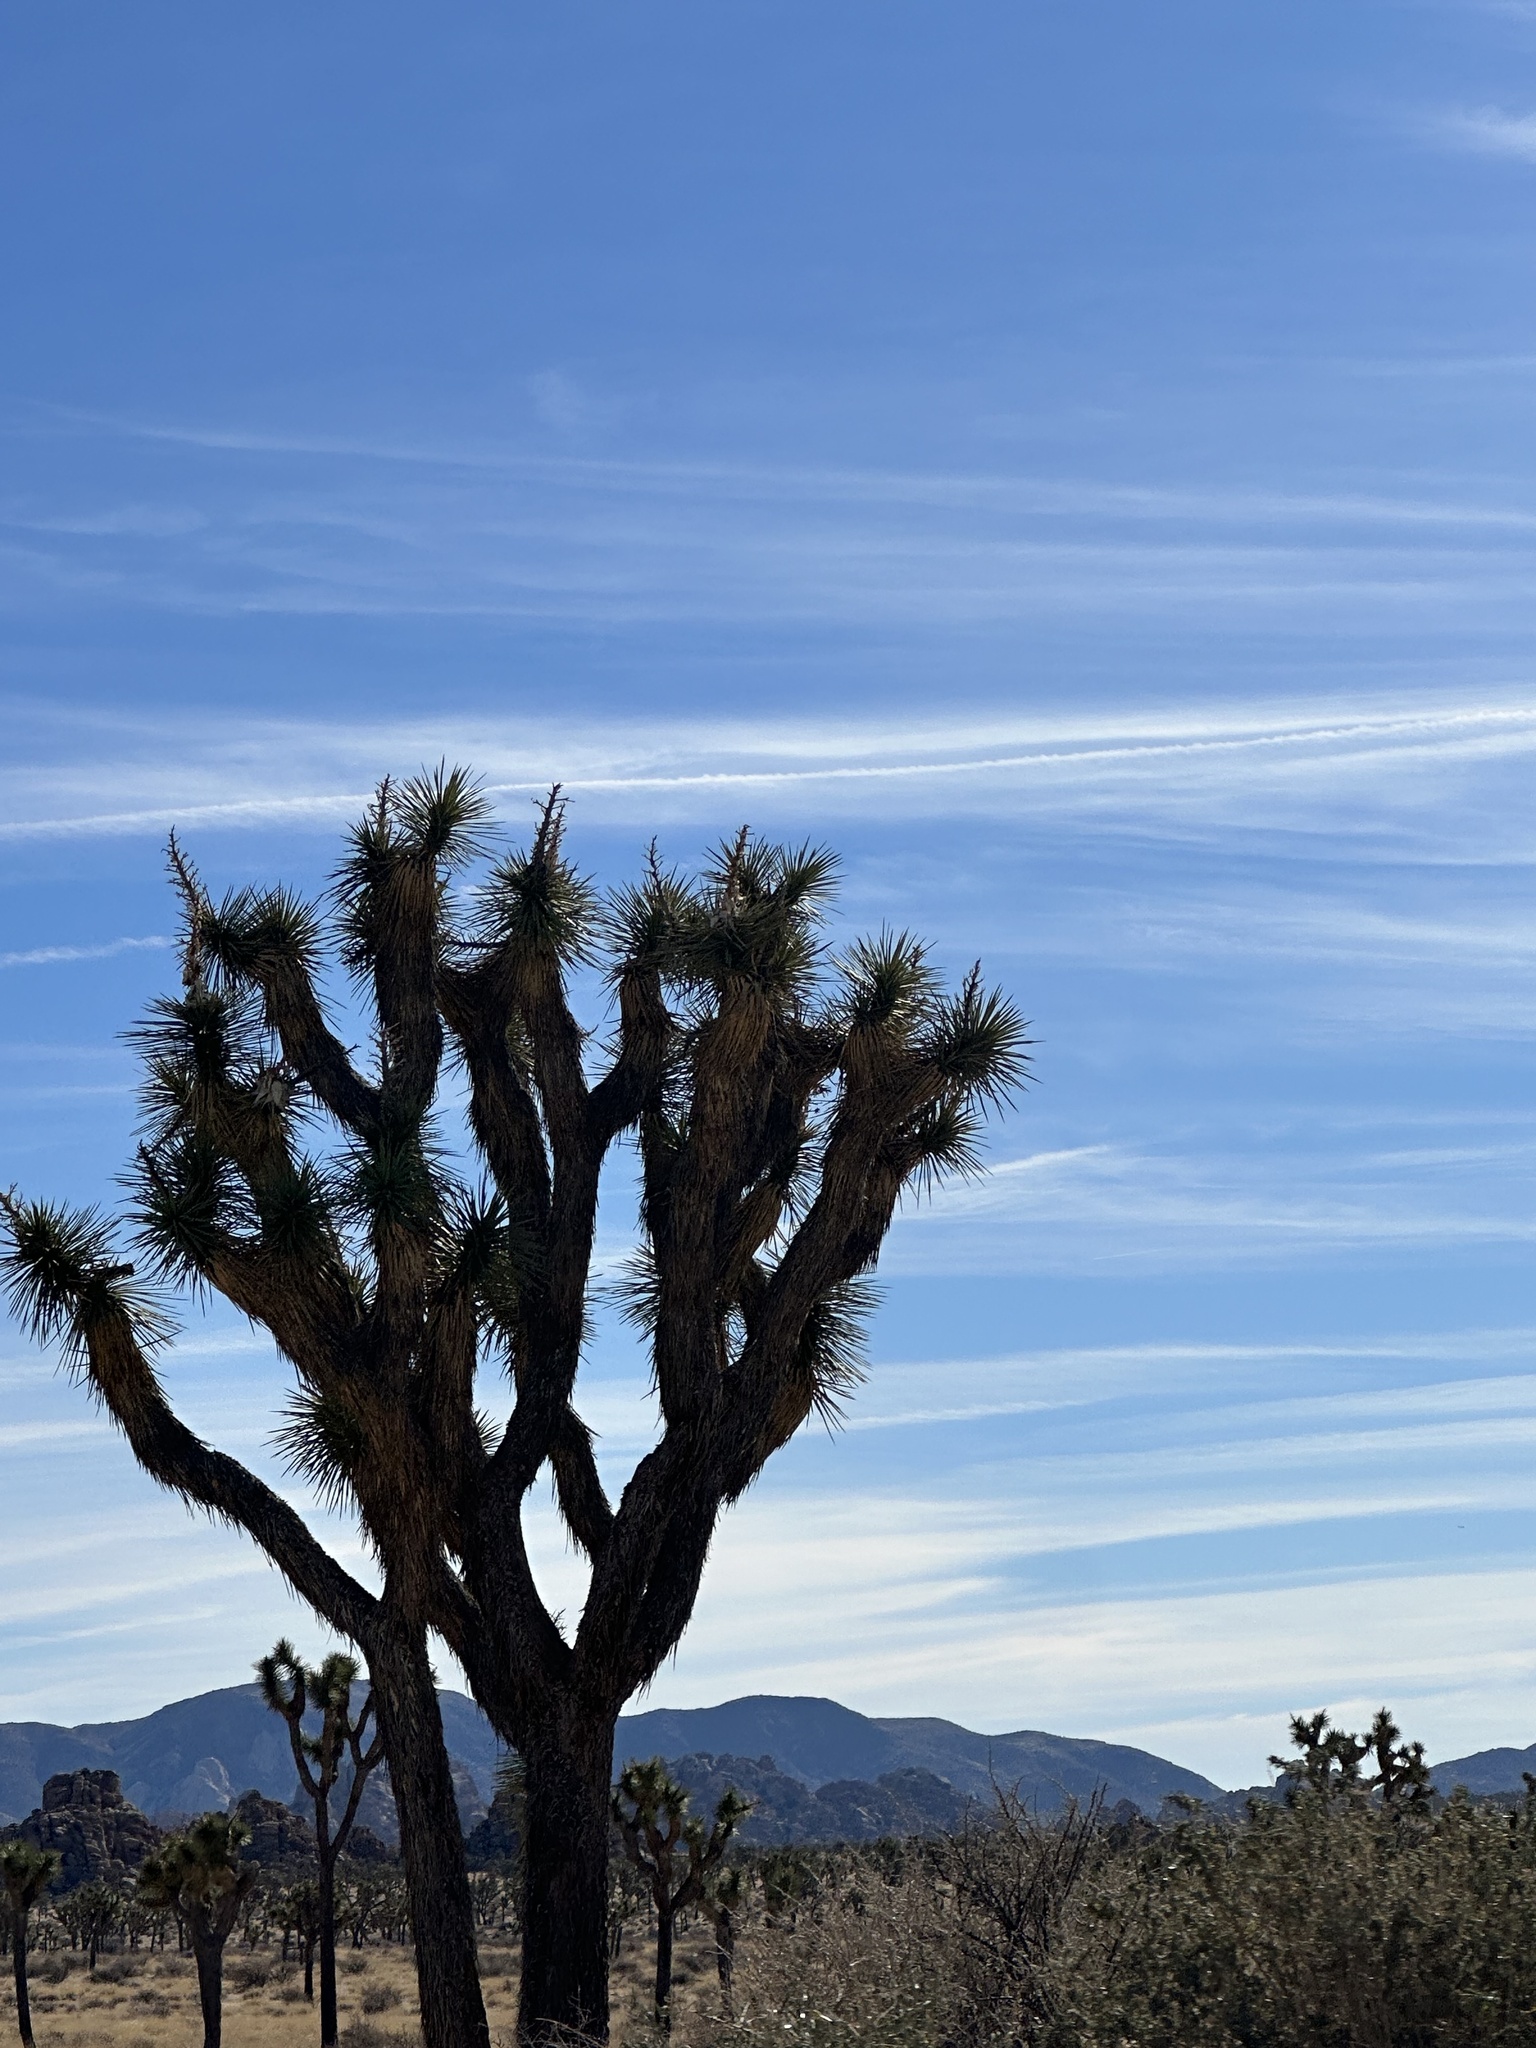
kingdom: Plantae
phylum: Tracheophyta
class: Liliopsida
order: Asparagales
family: Asparagaceae
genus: Yucca
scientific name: Yucca brevifolia
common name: Joshua tree
